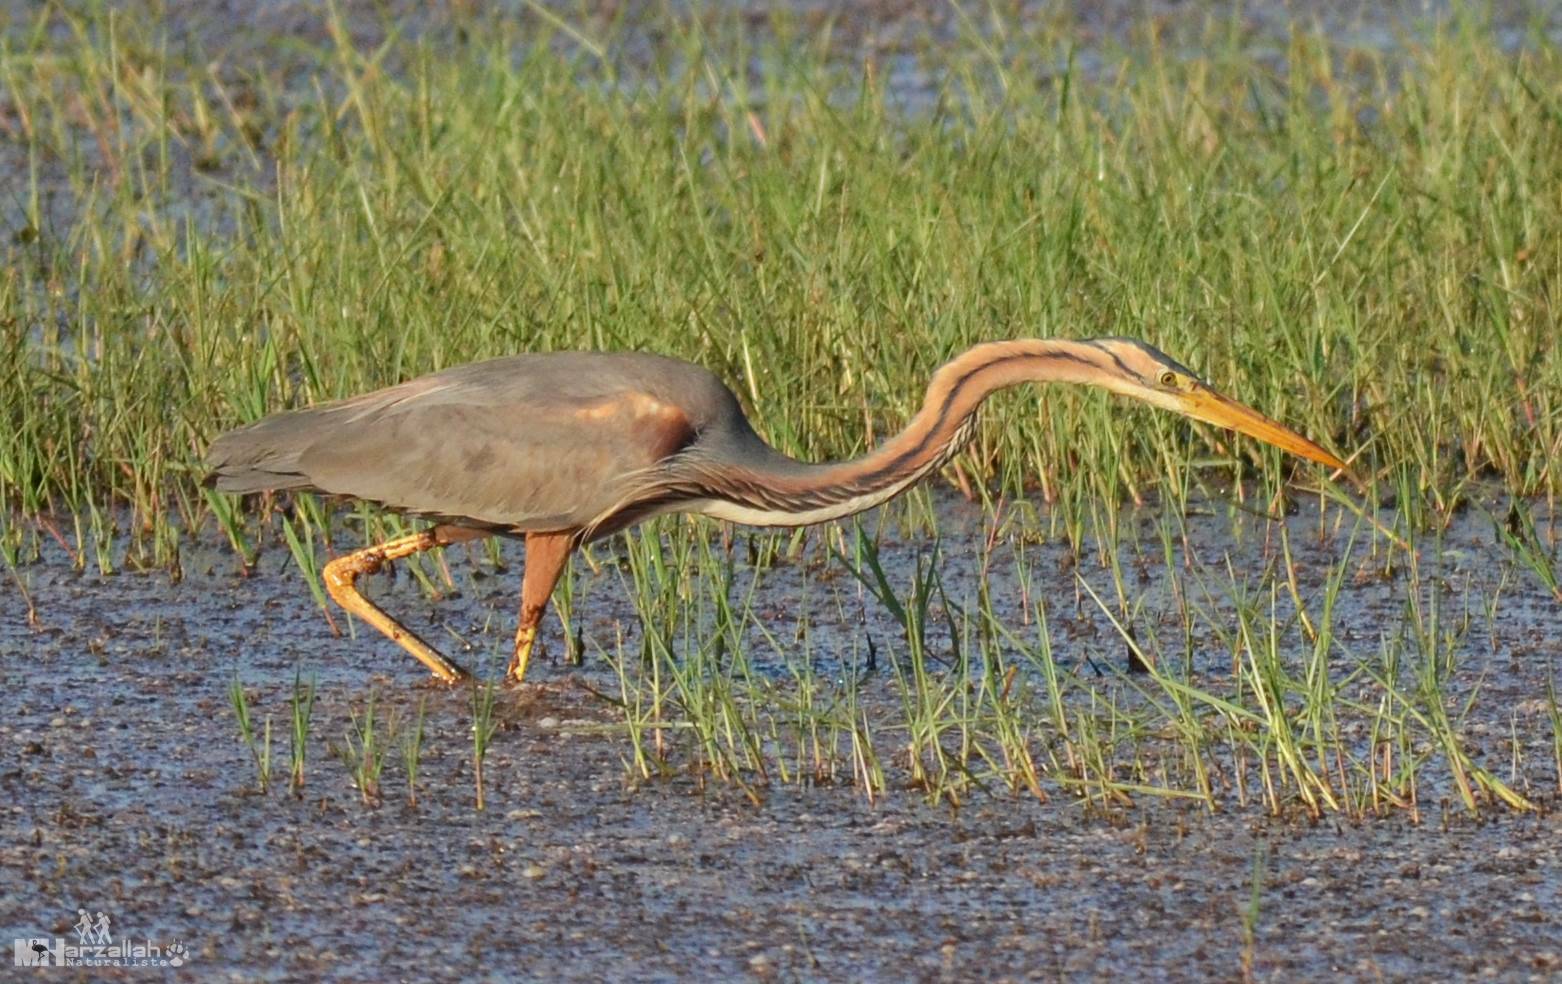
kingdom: Animalia
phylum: Chordata
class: Aves
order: Pelecaniformes
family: Ardeidae
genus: Ardea
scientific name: Ardea purpurea
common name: Purple heron
